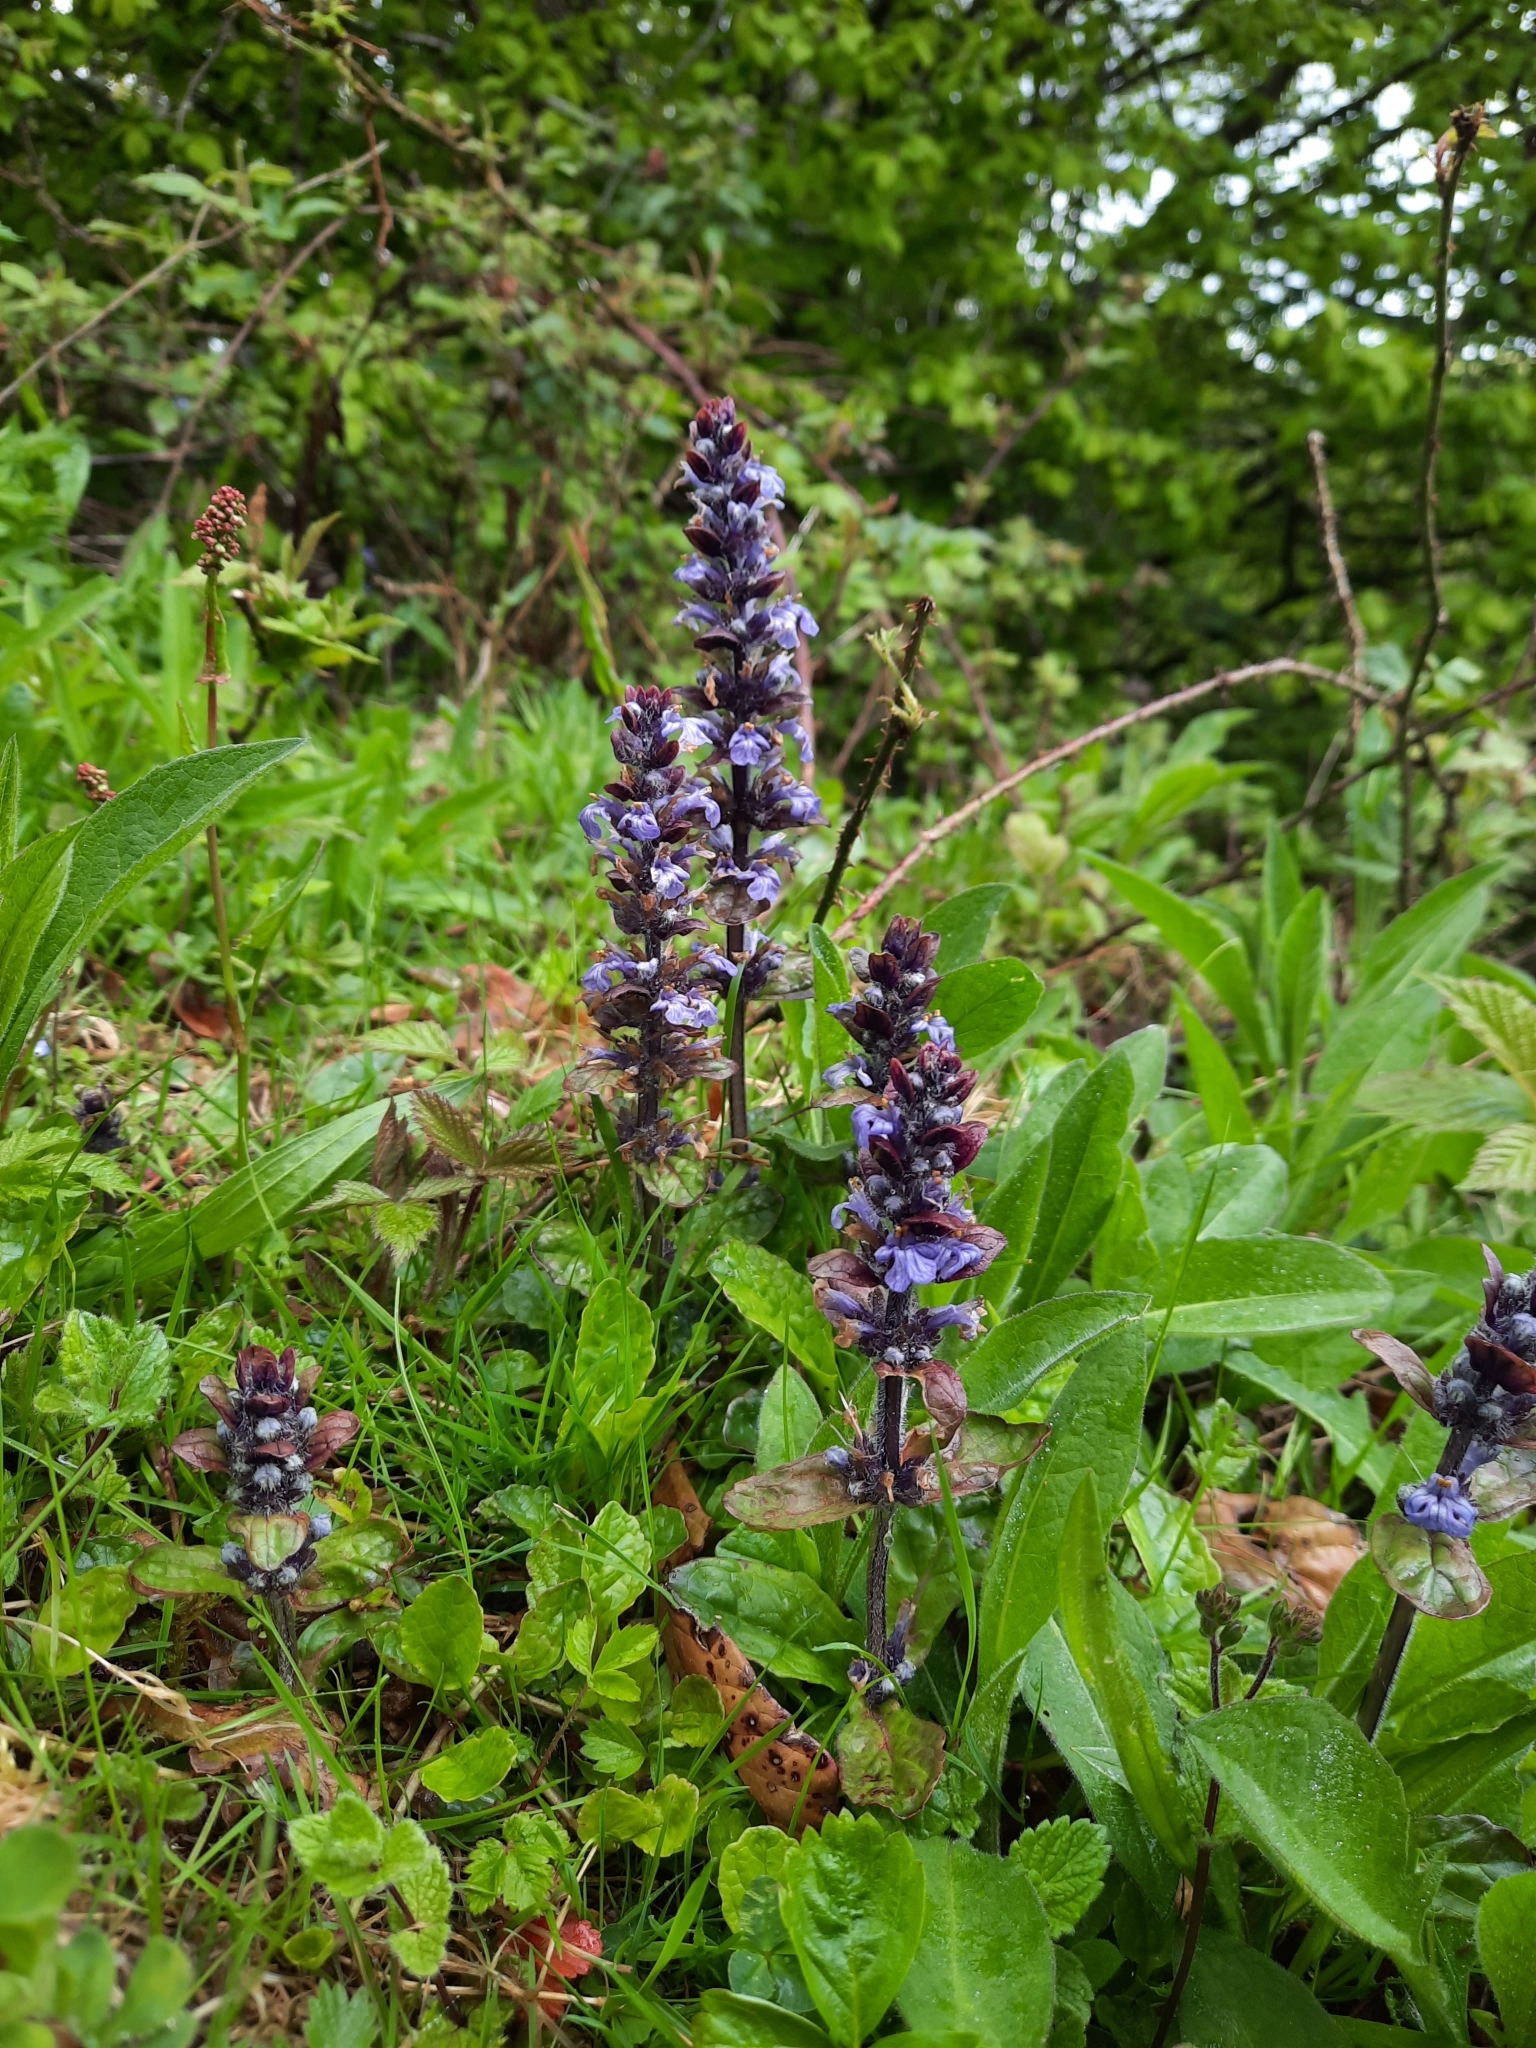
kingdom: Plantae
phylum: Tracheophyta
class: Magnoliopsida
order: Lamiales
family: Lamiaceae
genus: Ajuga
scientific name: Ajuga reptans
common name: Bugle
